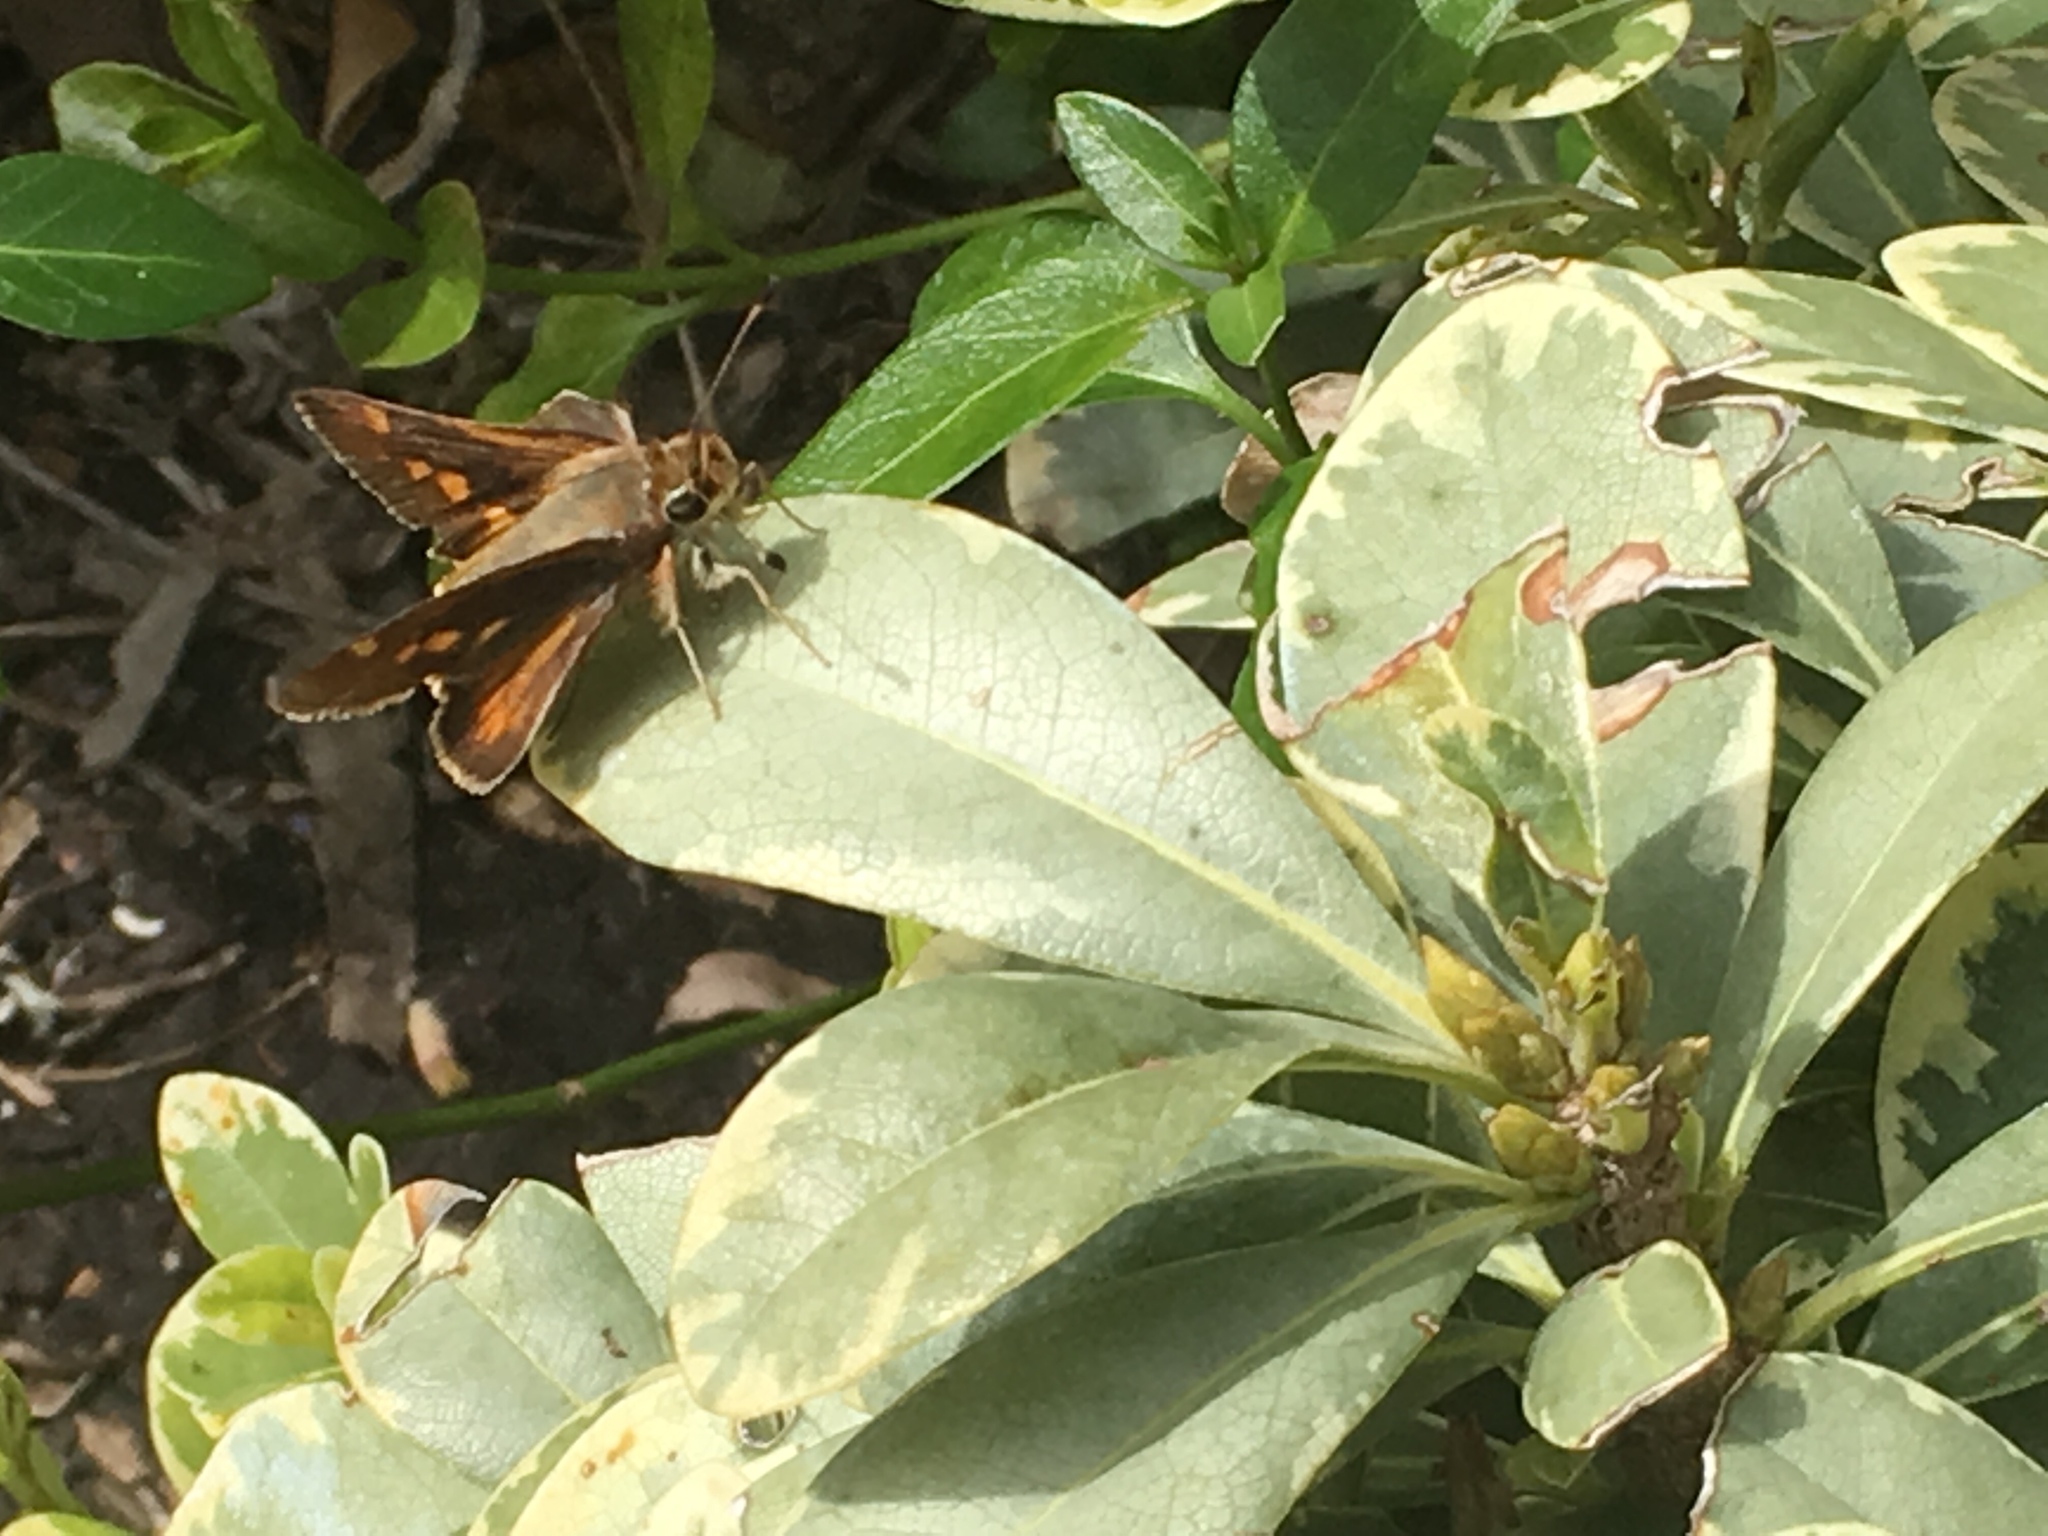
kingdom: Animalia
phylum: Arthropoda
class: Insecta
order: Lepidoptera
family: Hesperiidae
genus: Lon
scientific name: Lon melane
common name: Umber skipper
